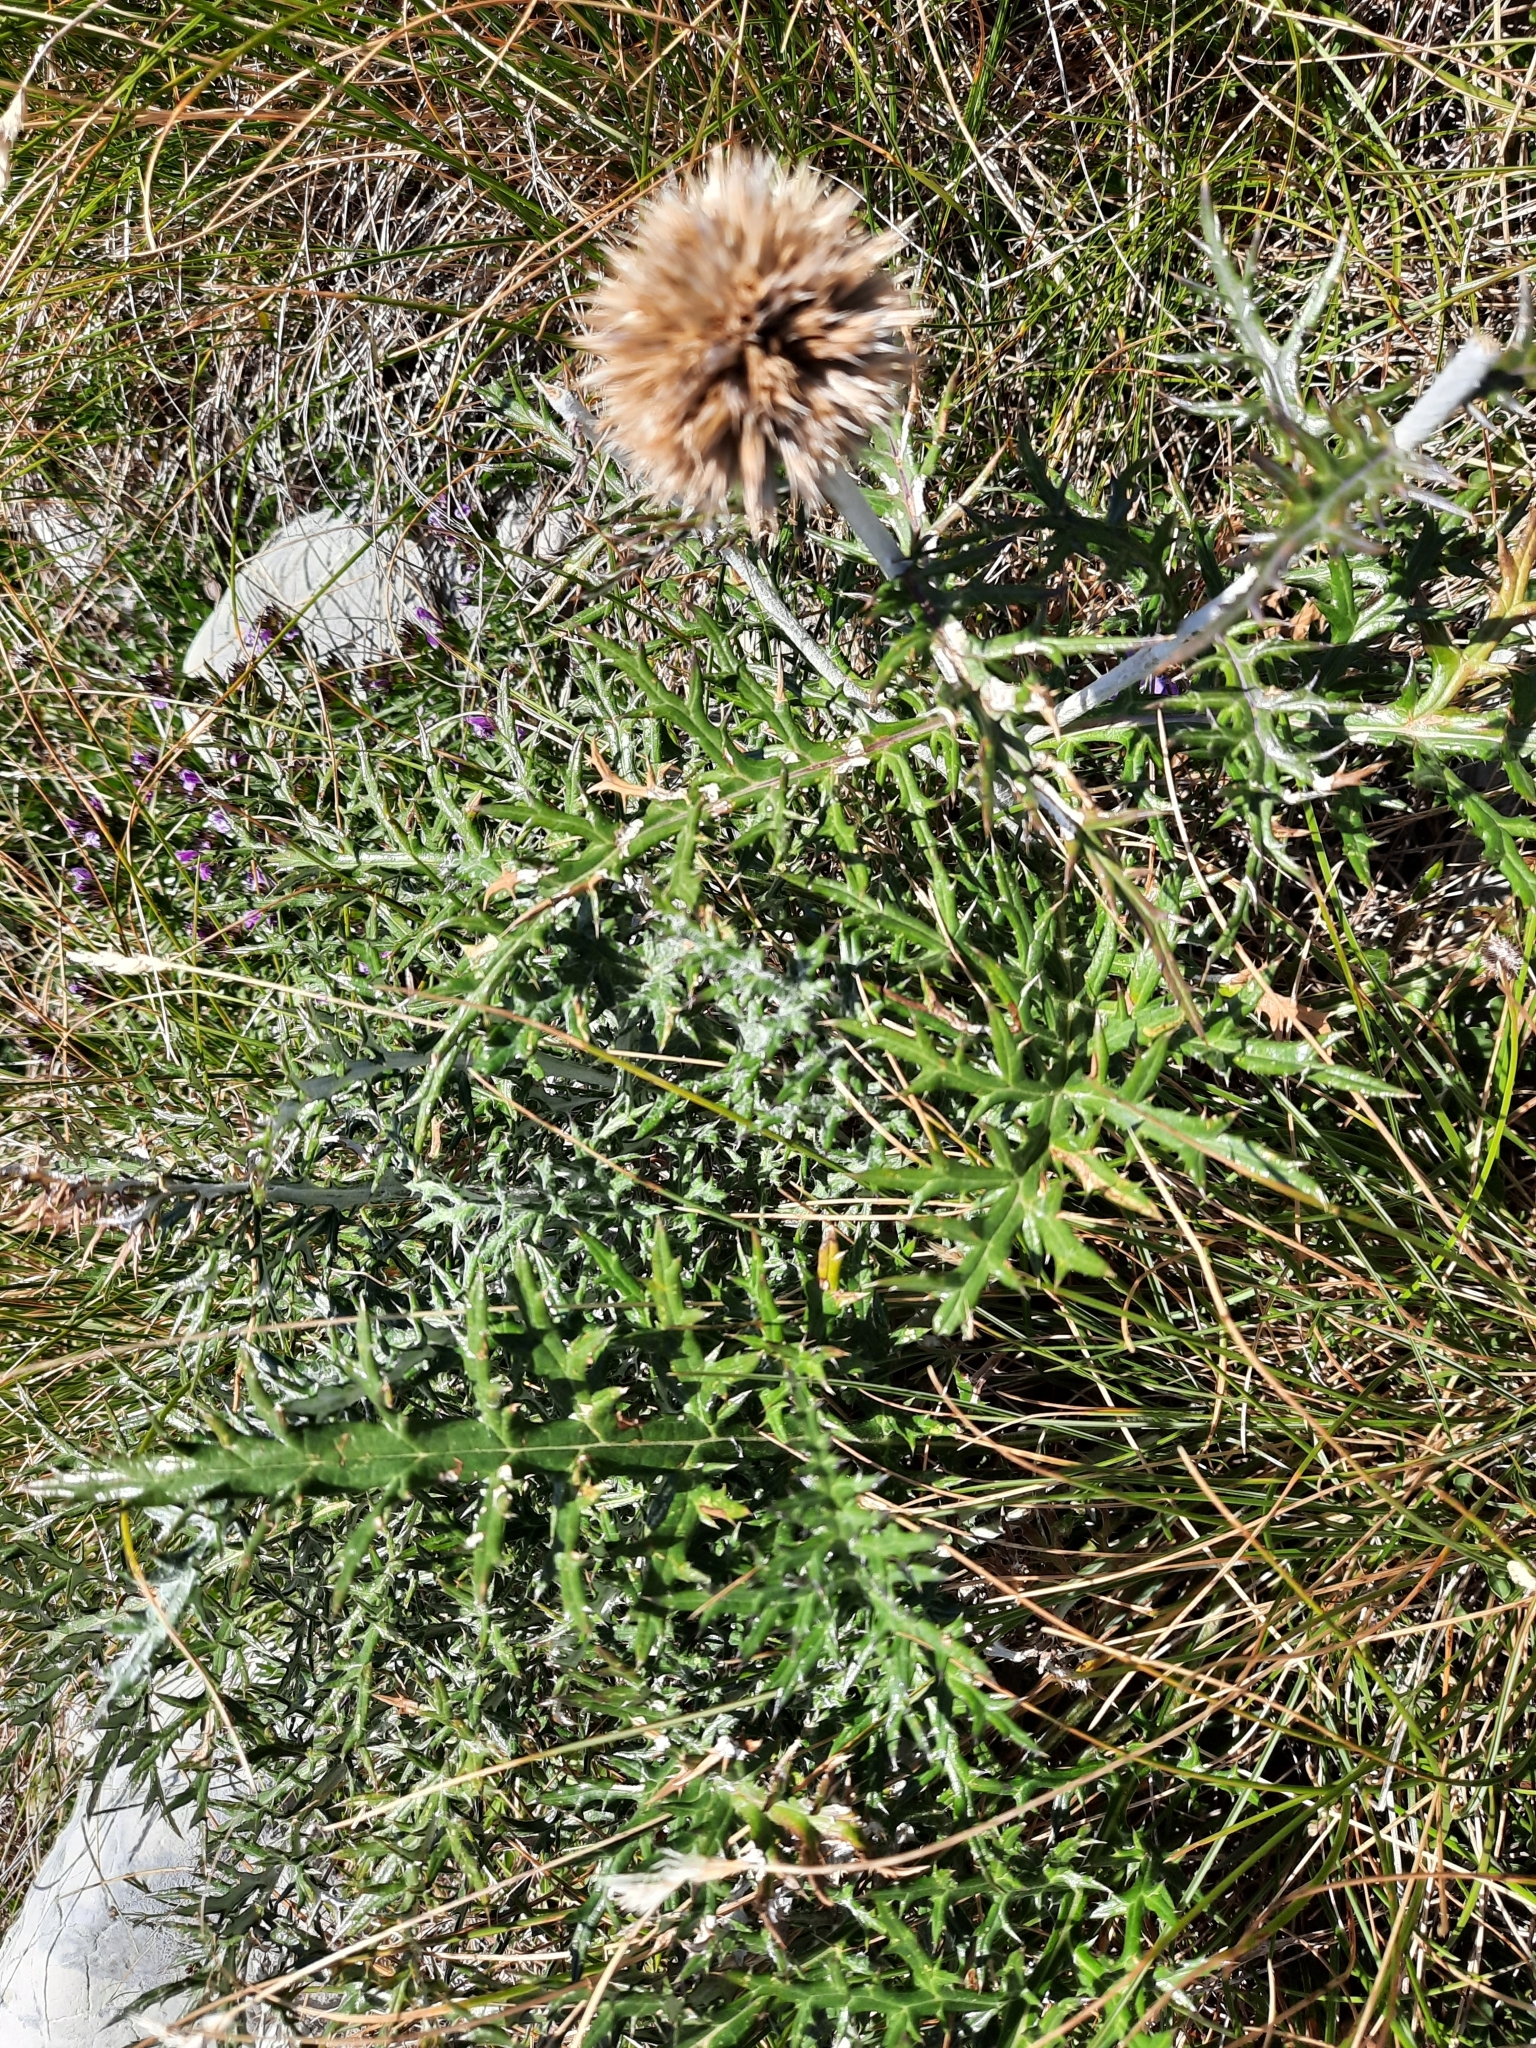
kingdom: Plantae
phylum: Tracheophyta
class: Magnoliopsida
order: Asterales
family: Asteraceae
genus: Echinops
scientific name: Echinops ritro
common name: Globe thistle
